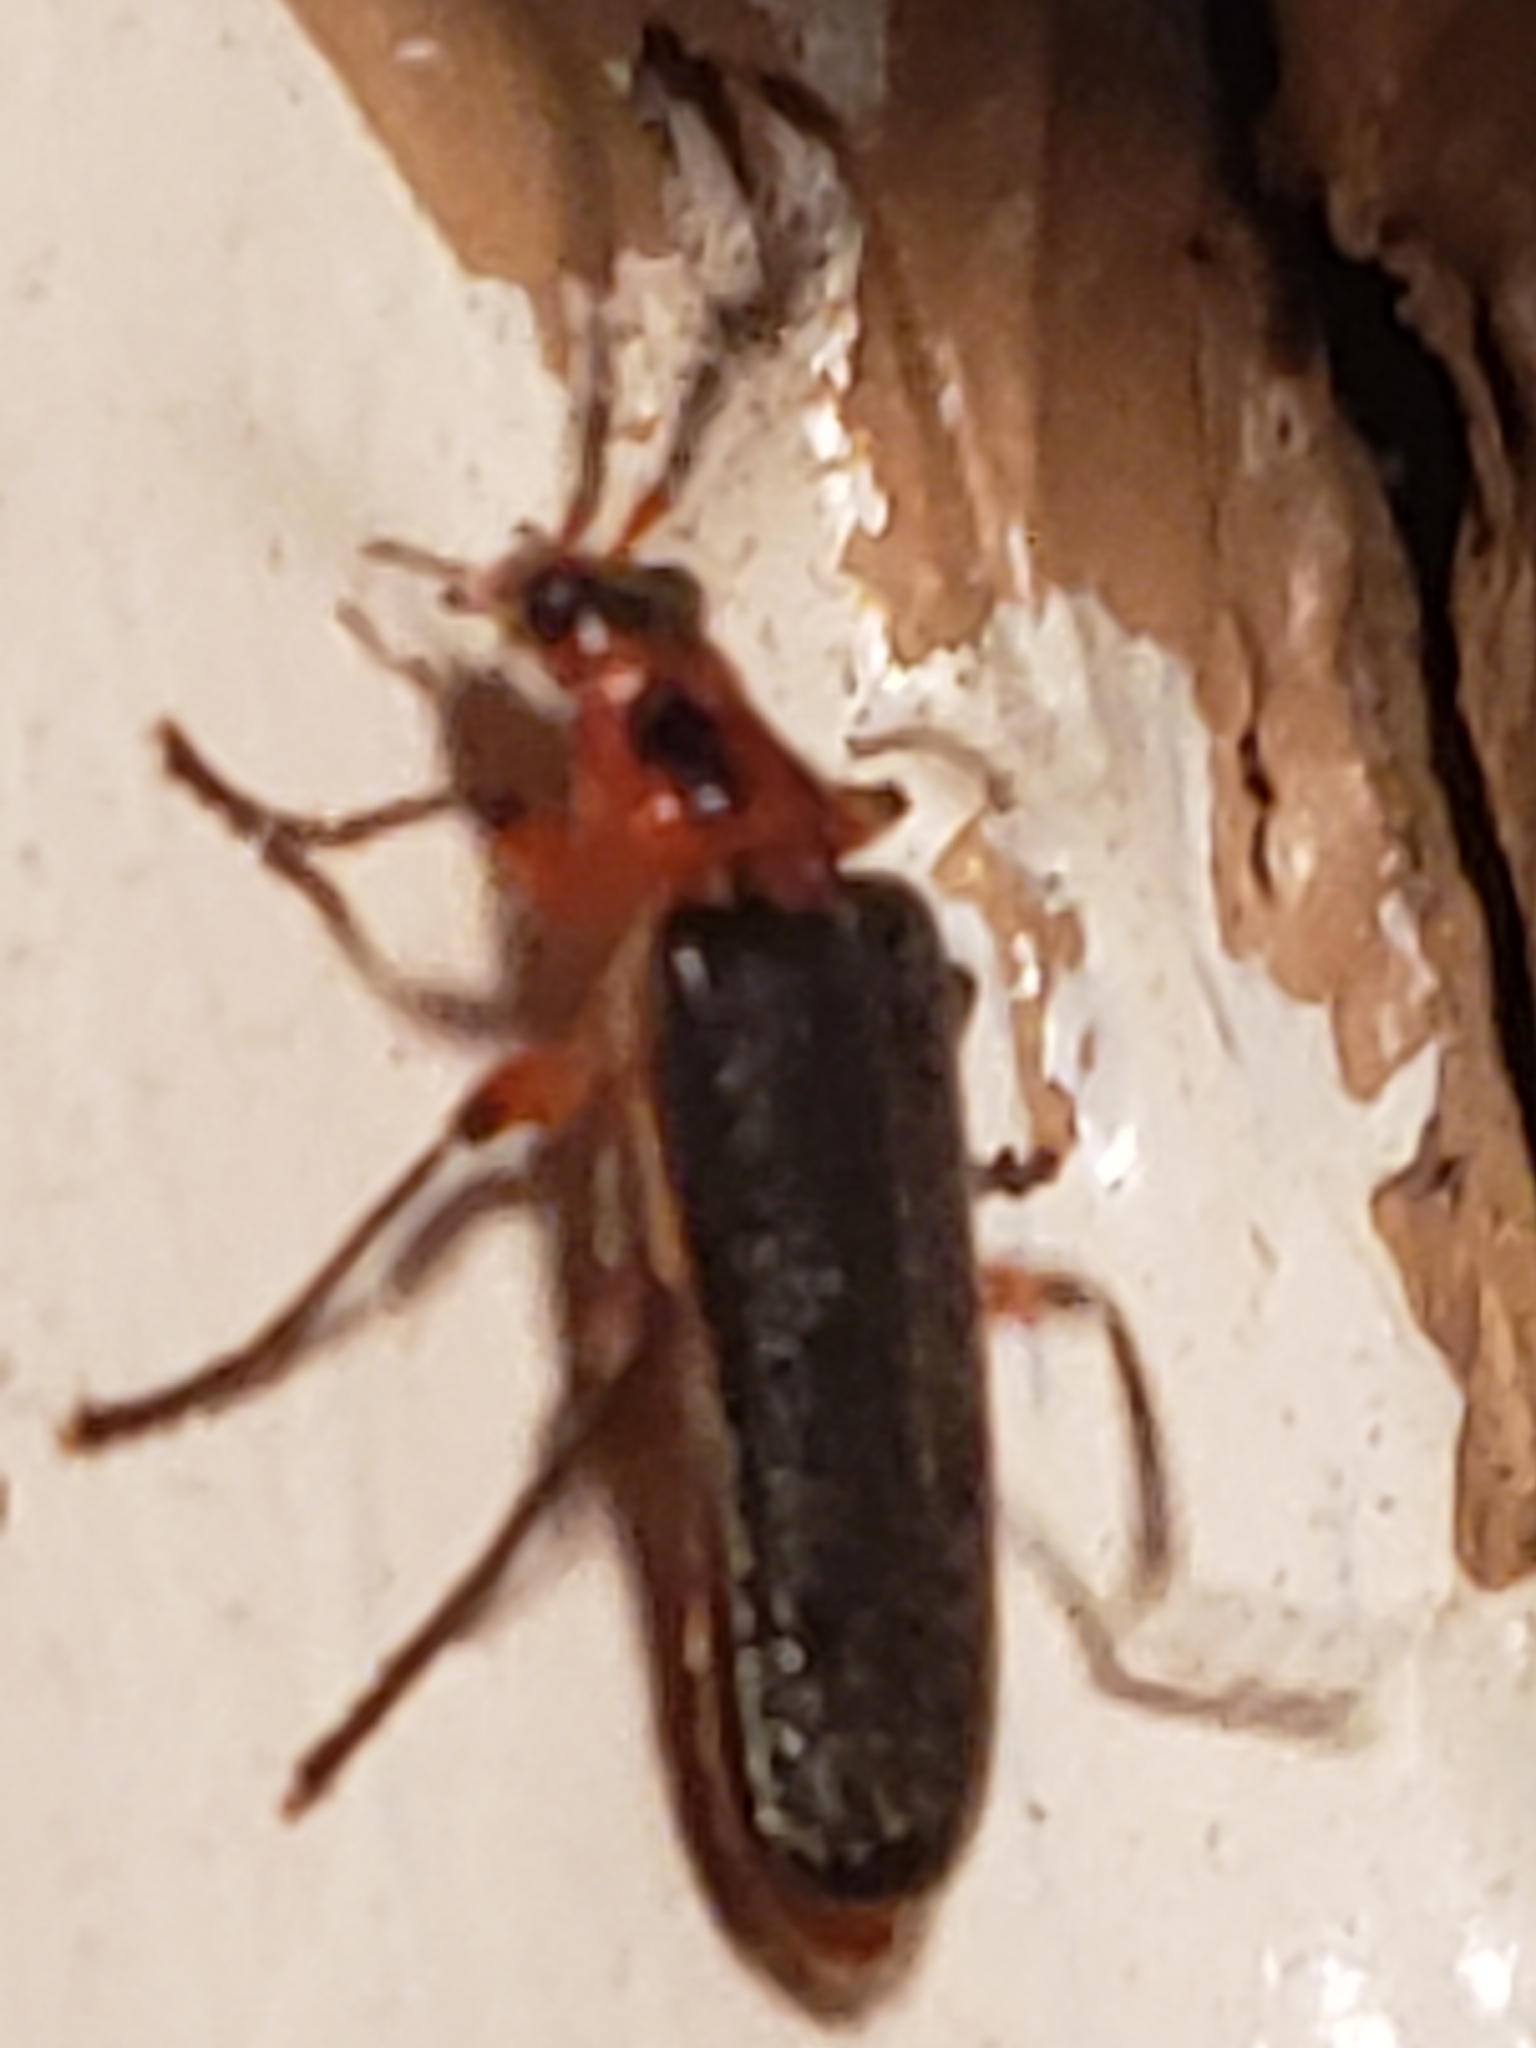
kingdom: Animalia
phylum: Arthropoda
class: Insecta
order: Coleoptera
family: Cantharidae
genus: Atalantycha
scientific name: Atalantycha bilineata
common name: Two-lined leatherwing
